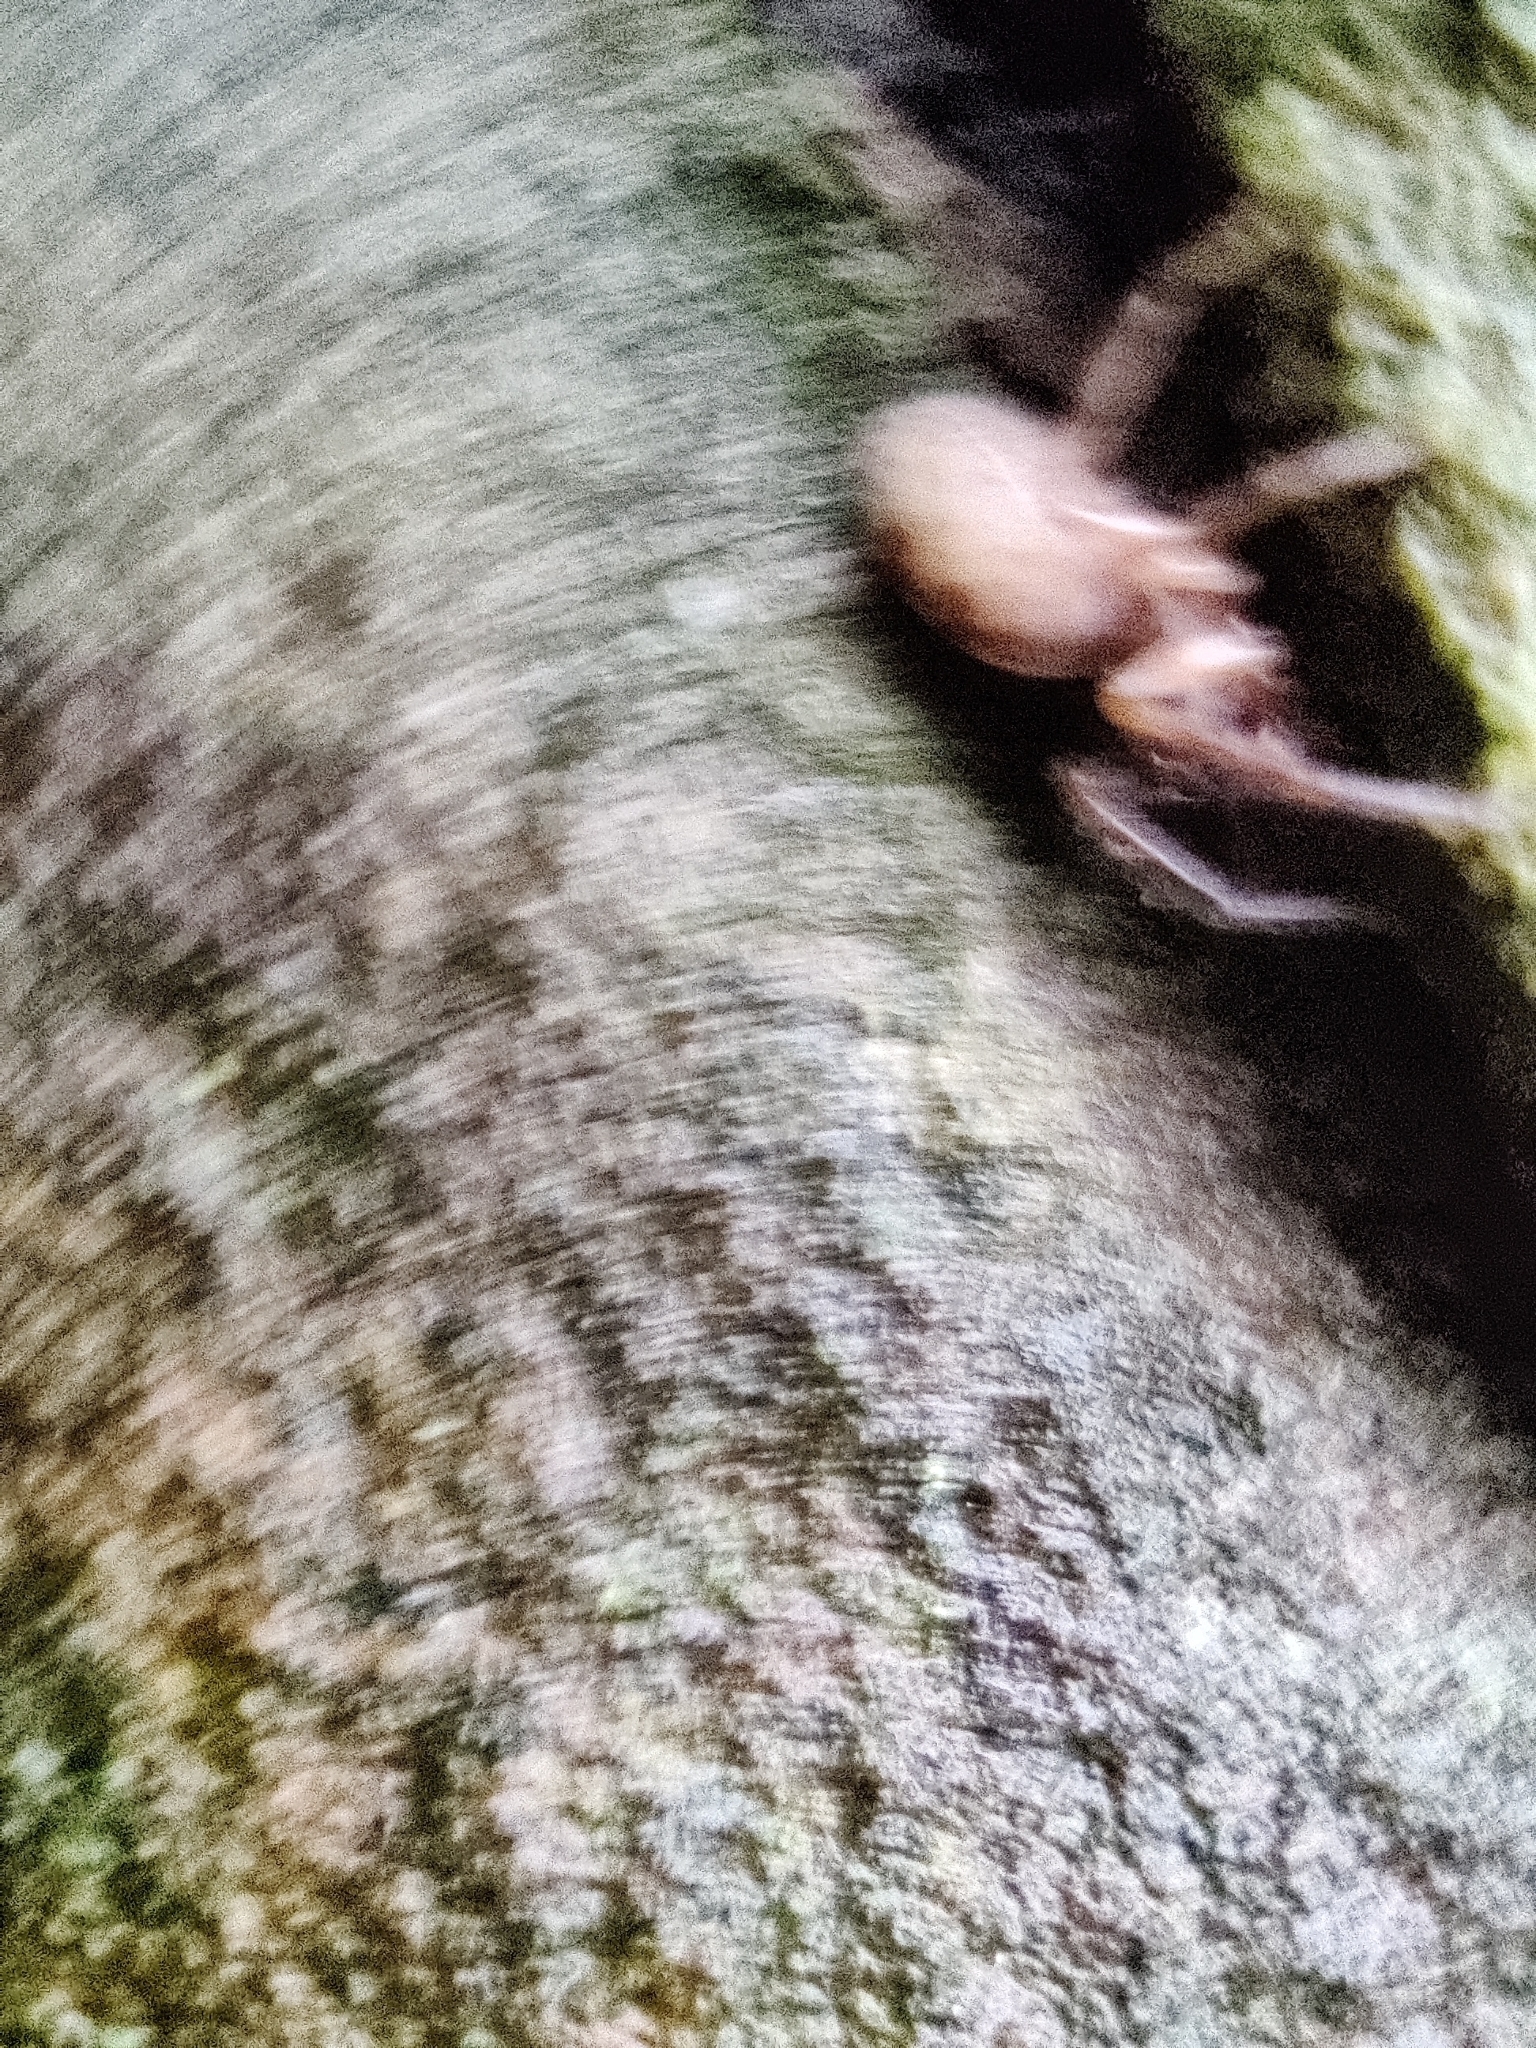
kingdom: Animalia
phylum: Arthropoda
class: Arachnida
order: Araneae
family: Segestriidae
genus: Segestria
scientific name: Segestria senoculata
